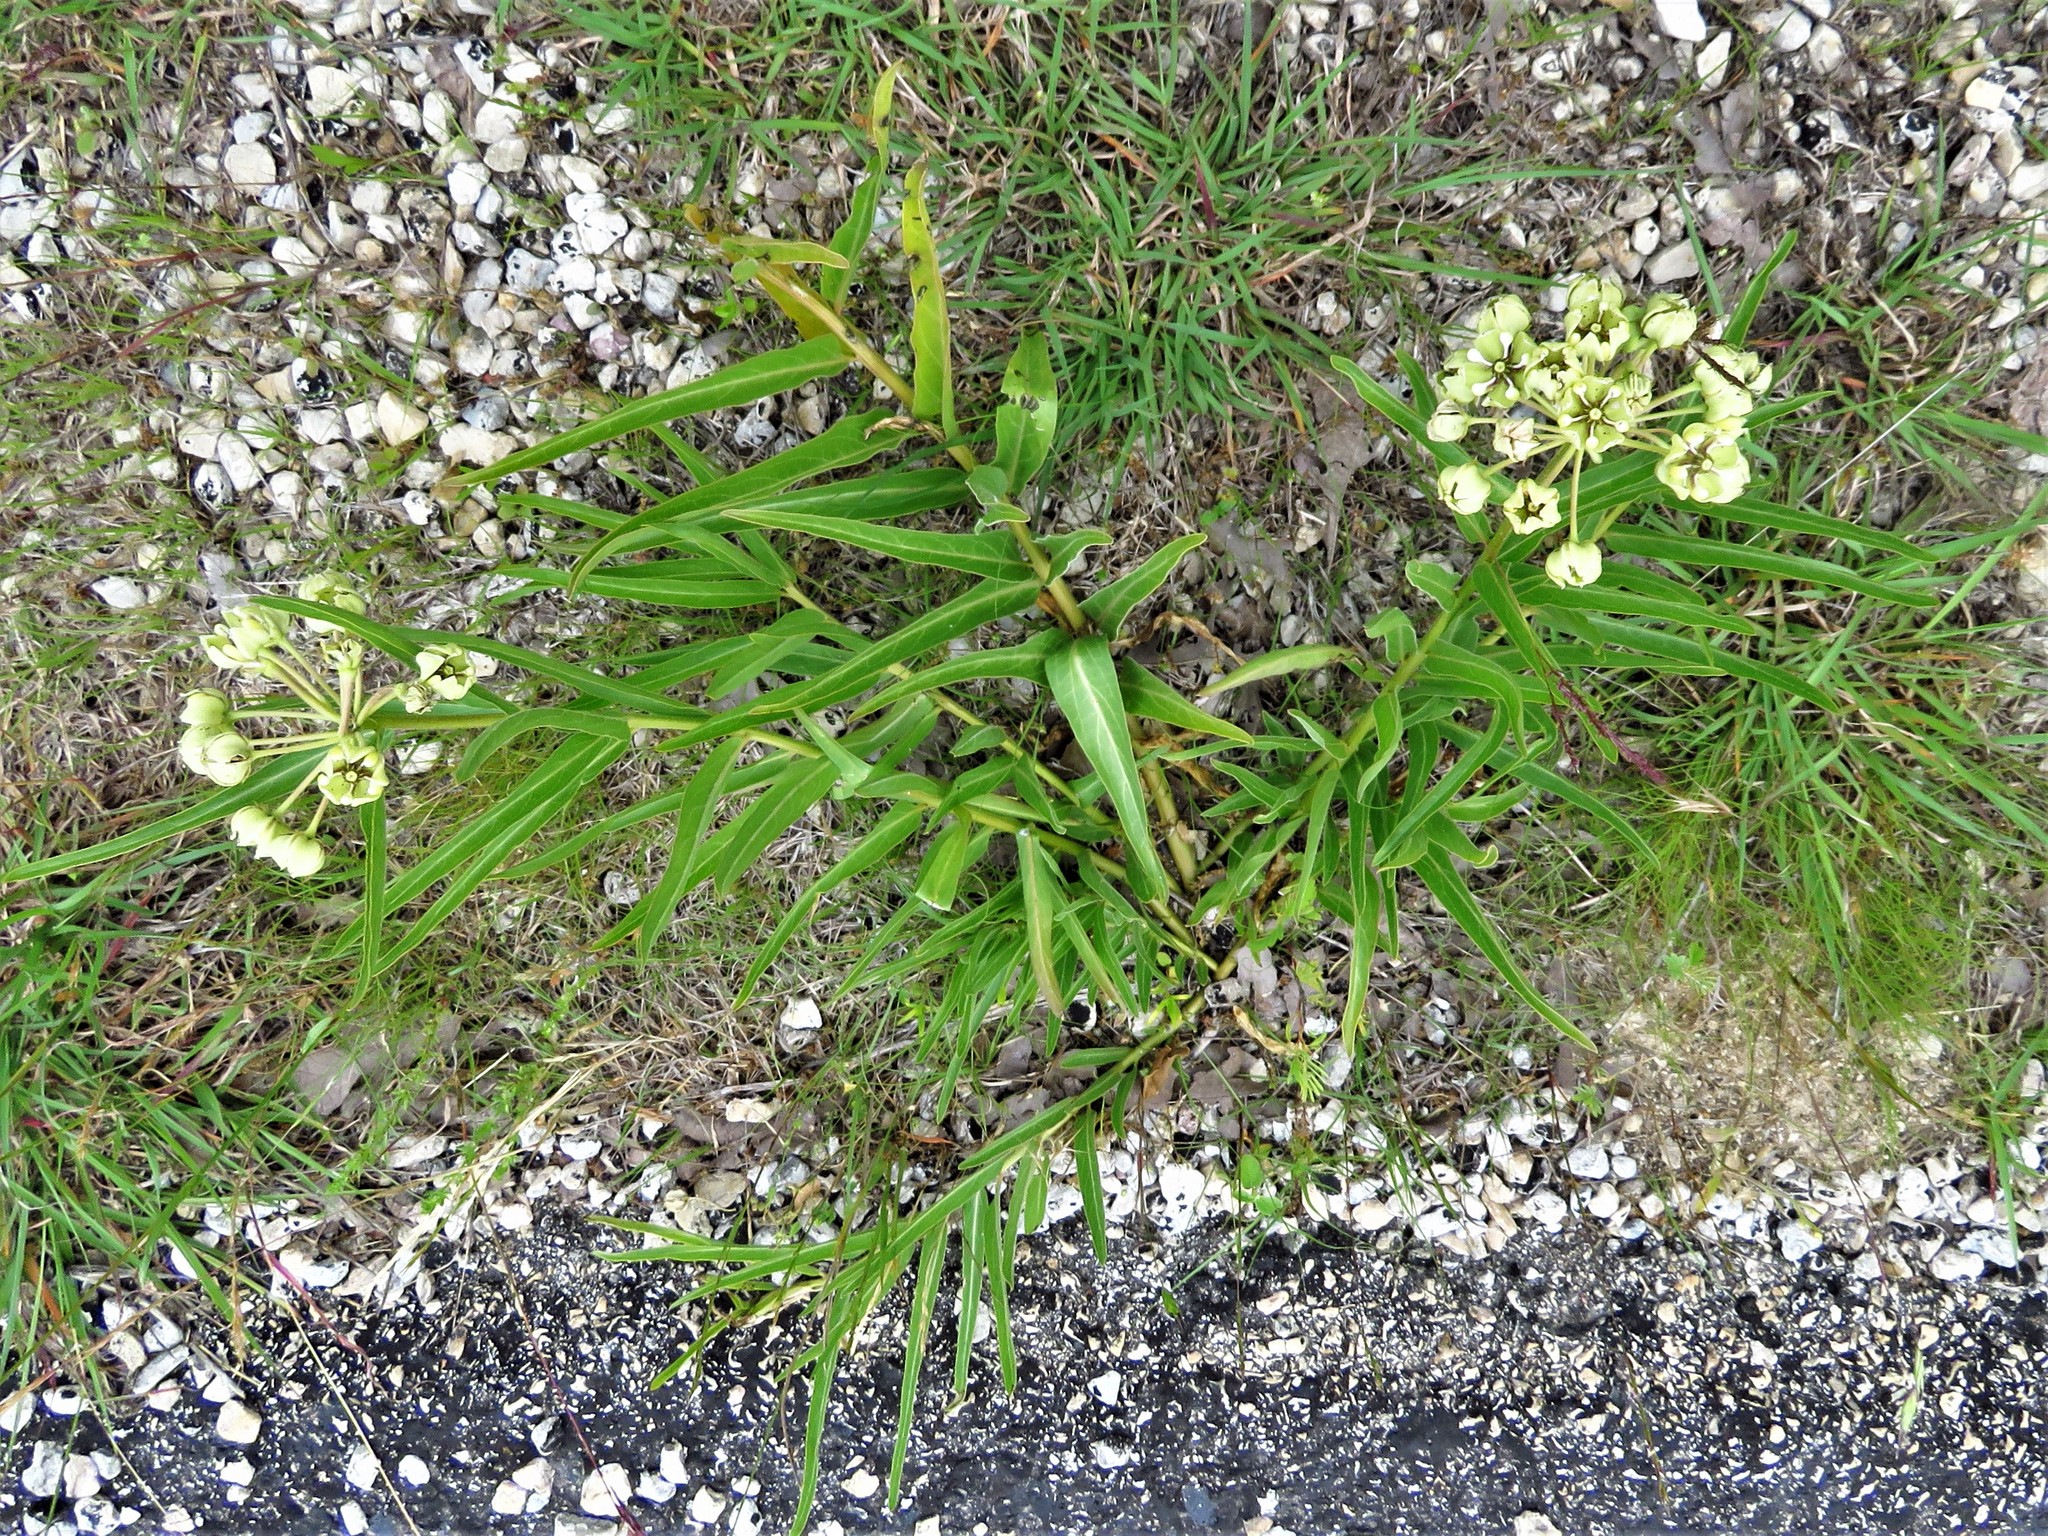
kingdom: Plantae
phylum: Tracheophyta
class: Magnoliopsida
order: Gentianales
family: Apocynaceae
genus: Asclepias
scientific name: Asclepias asperula
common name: Antelope horns
